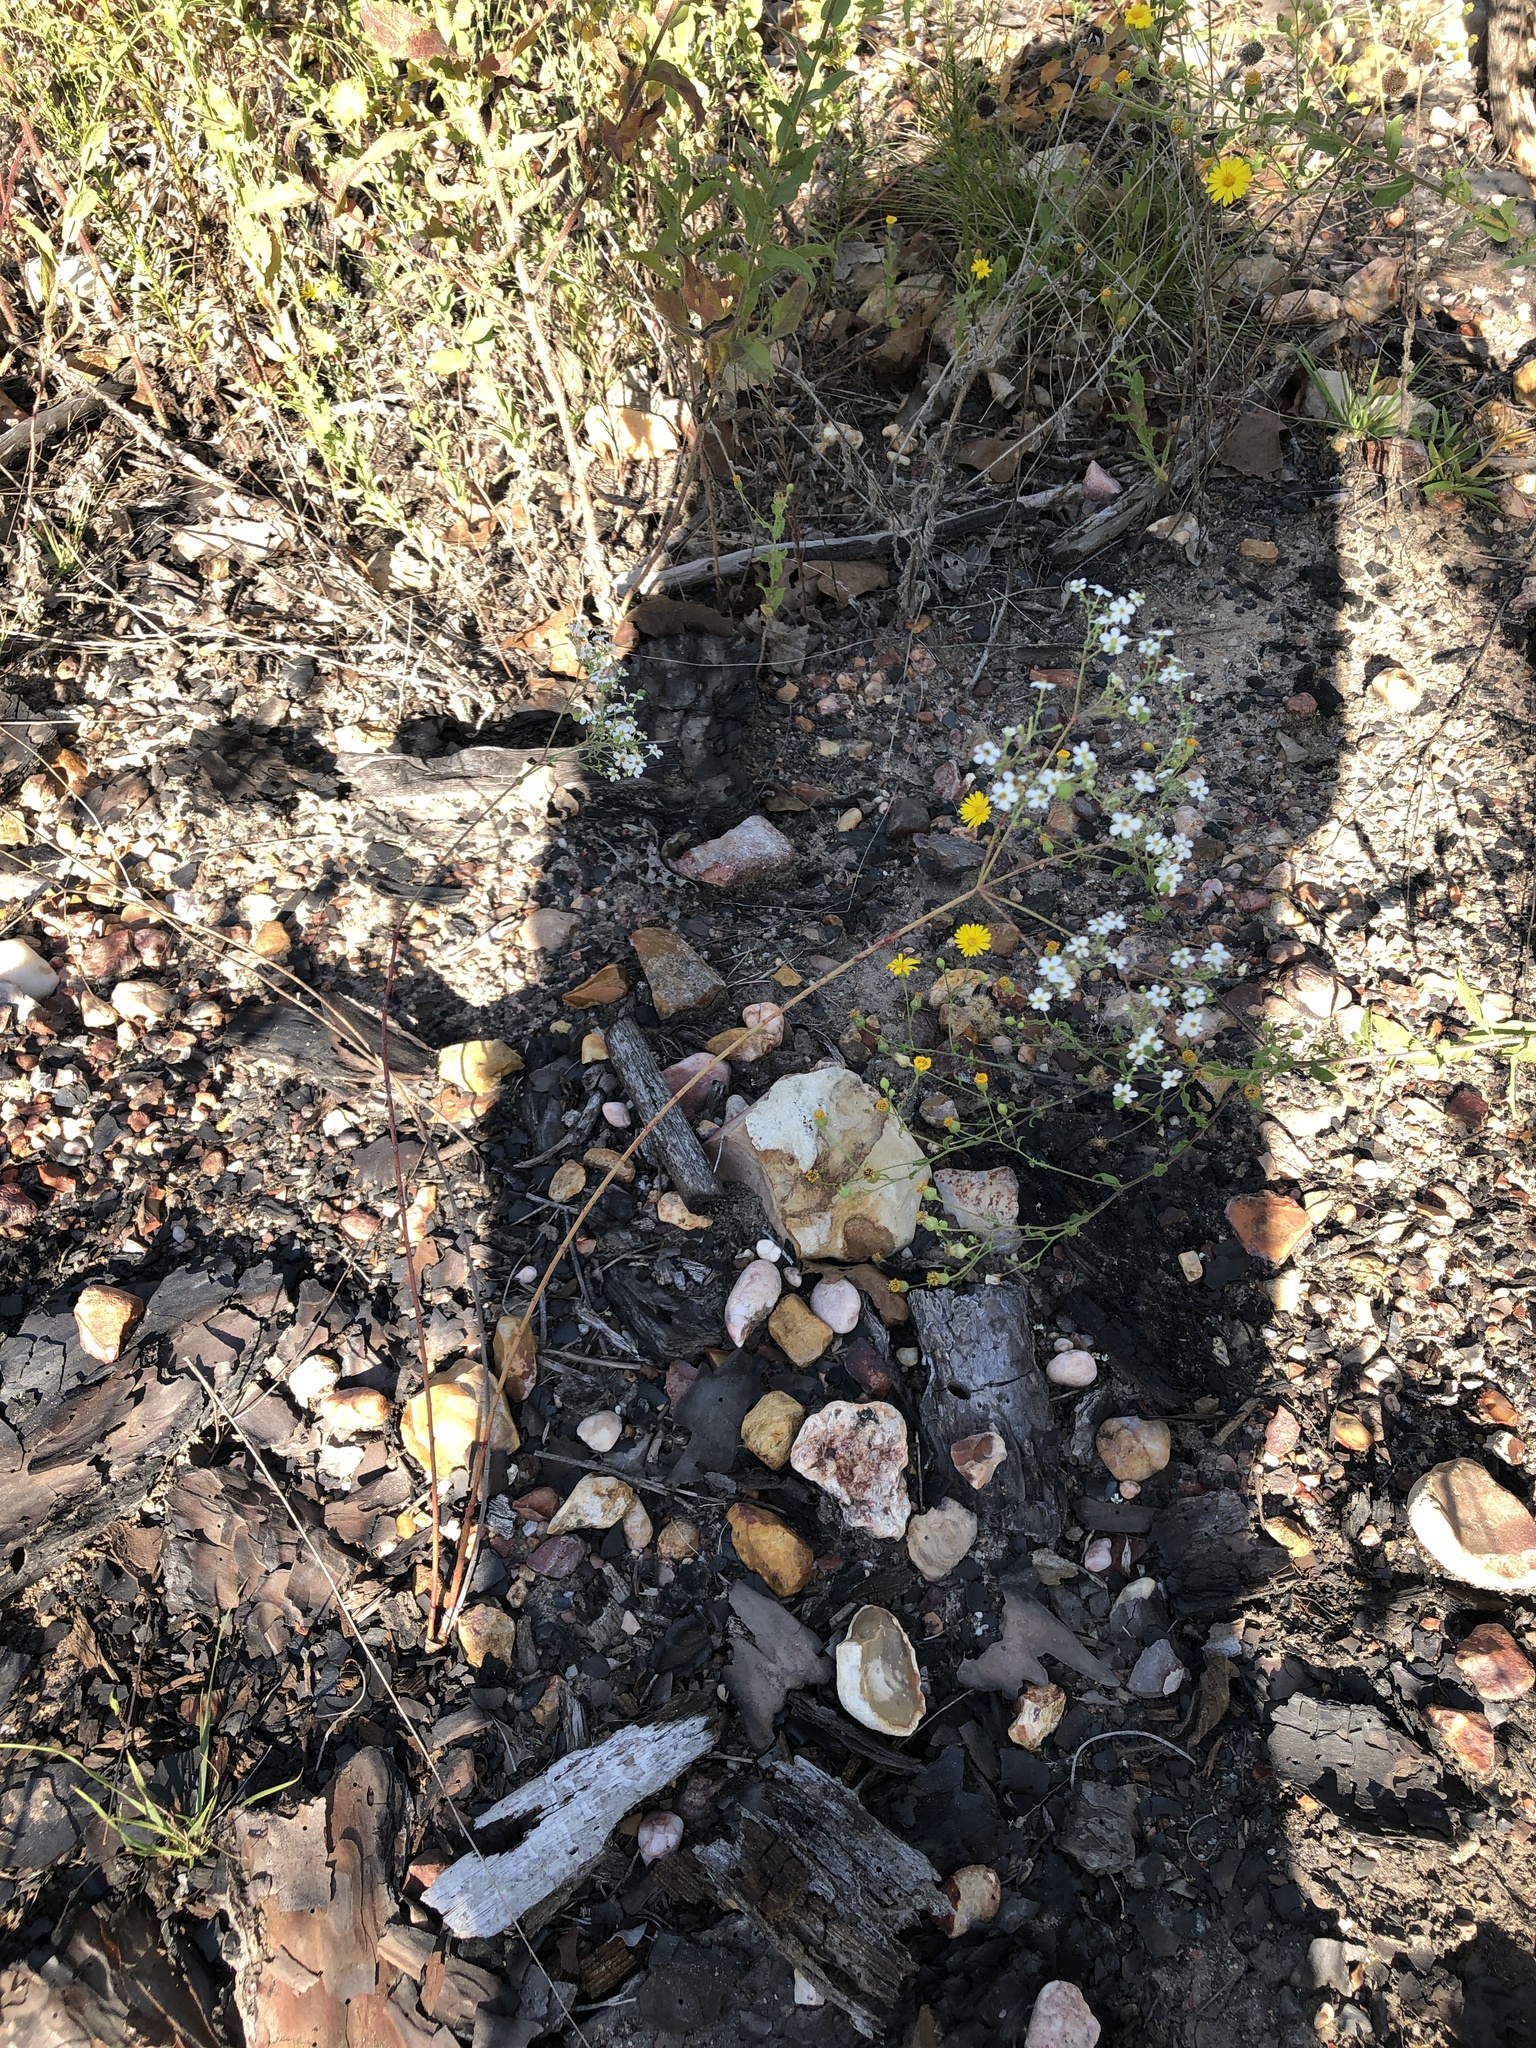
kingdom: Plantae
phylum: Tracheophyta
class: Magnoliopsida
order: Malpighiales
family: Euphorbiaceae
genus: Euphorbia
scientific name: Euphorbia corollata
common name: Flowering spurge
